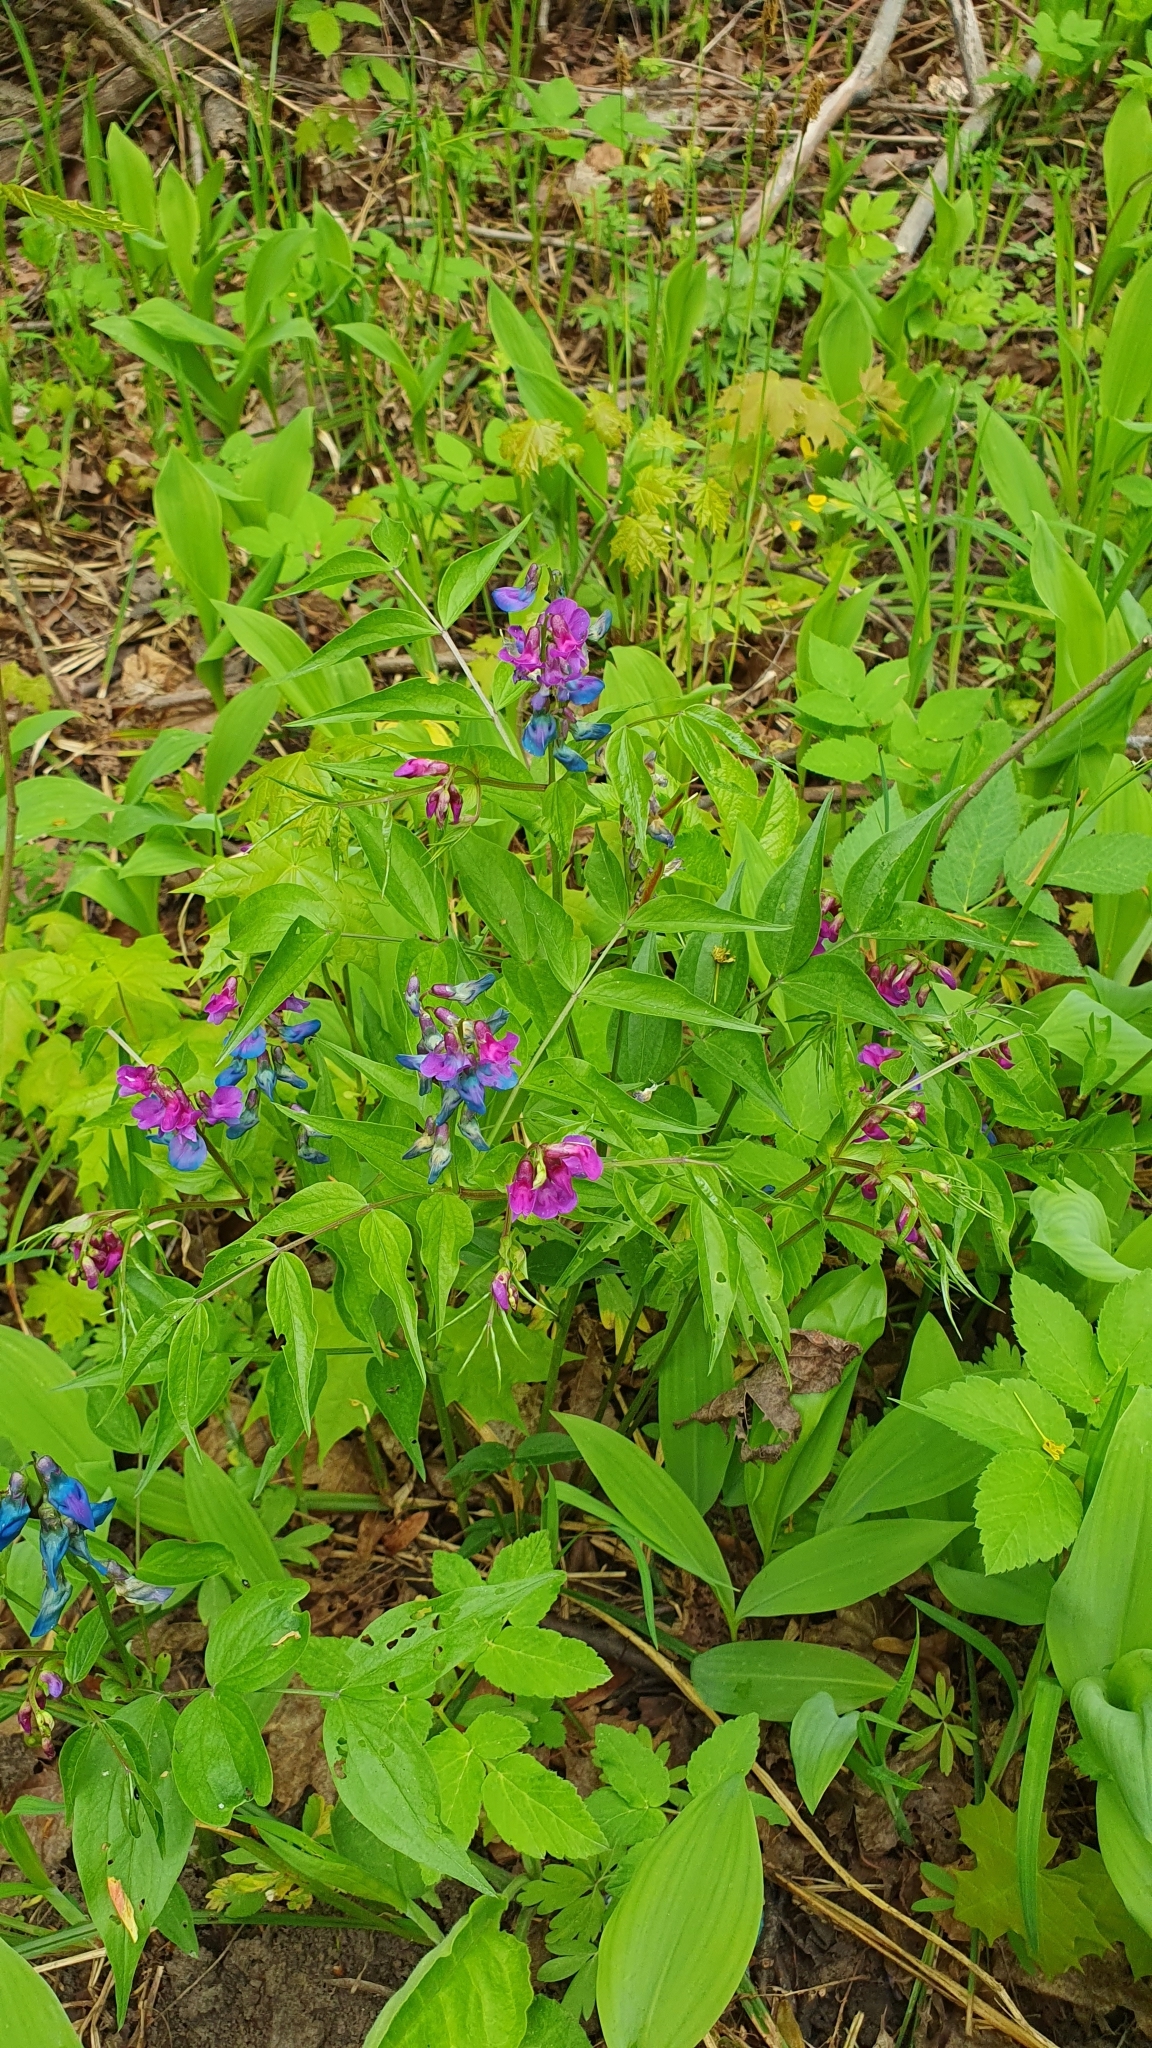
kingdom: Plantae
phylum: Tracheophyta
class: Magnoliopsida
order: Fabales
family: Fabaceae
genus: Lathyrus
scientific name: Lathyrus vernus
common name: Spring pea
